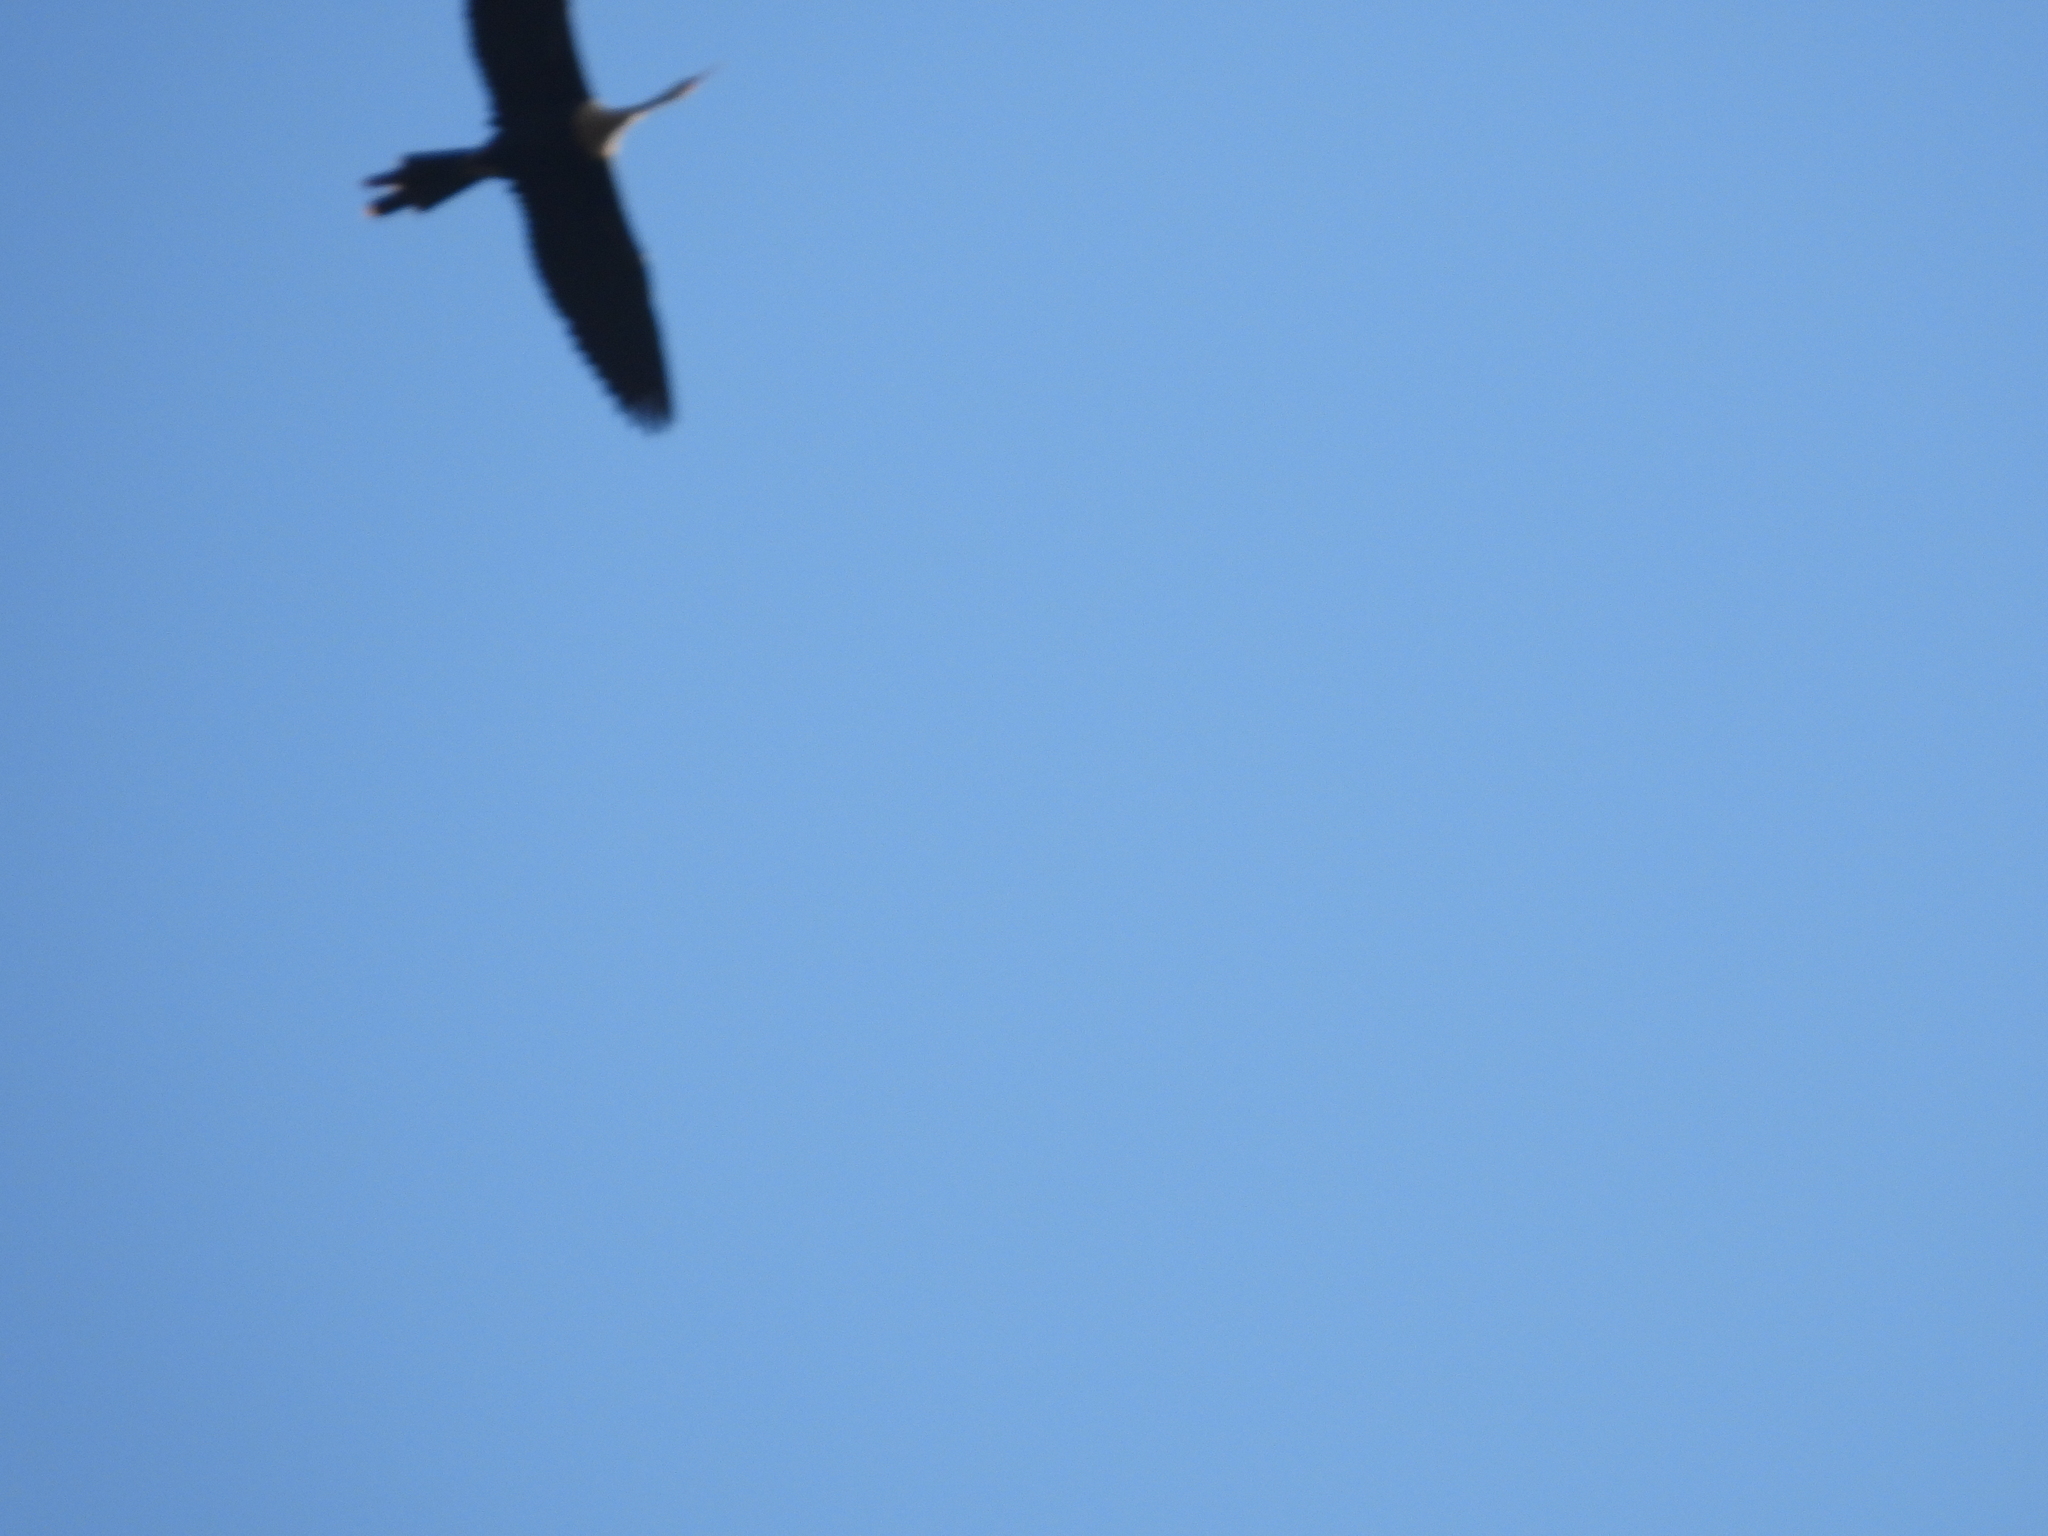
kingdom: Animalia
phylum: Chordata
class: Aves
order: Suliformes
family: Anhingidae
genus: Anhinga
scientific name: Anhinga anhinga
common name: Anhinga
